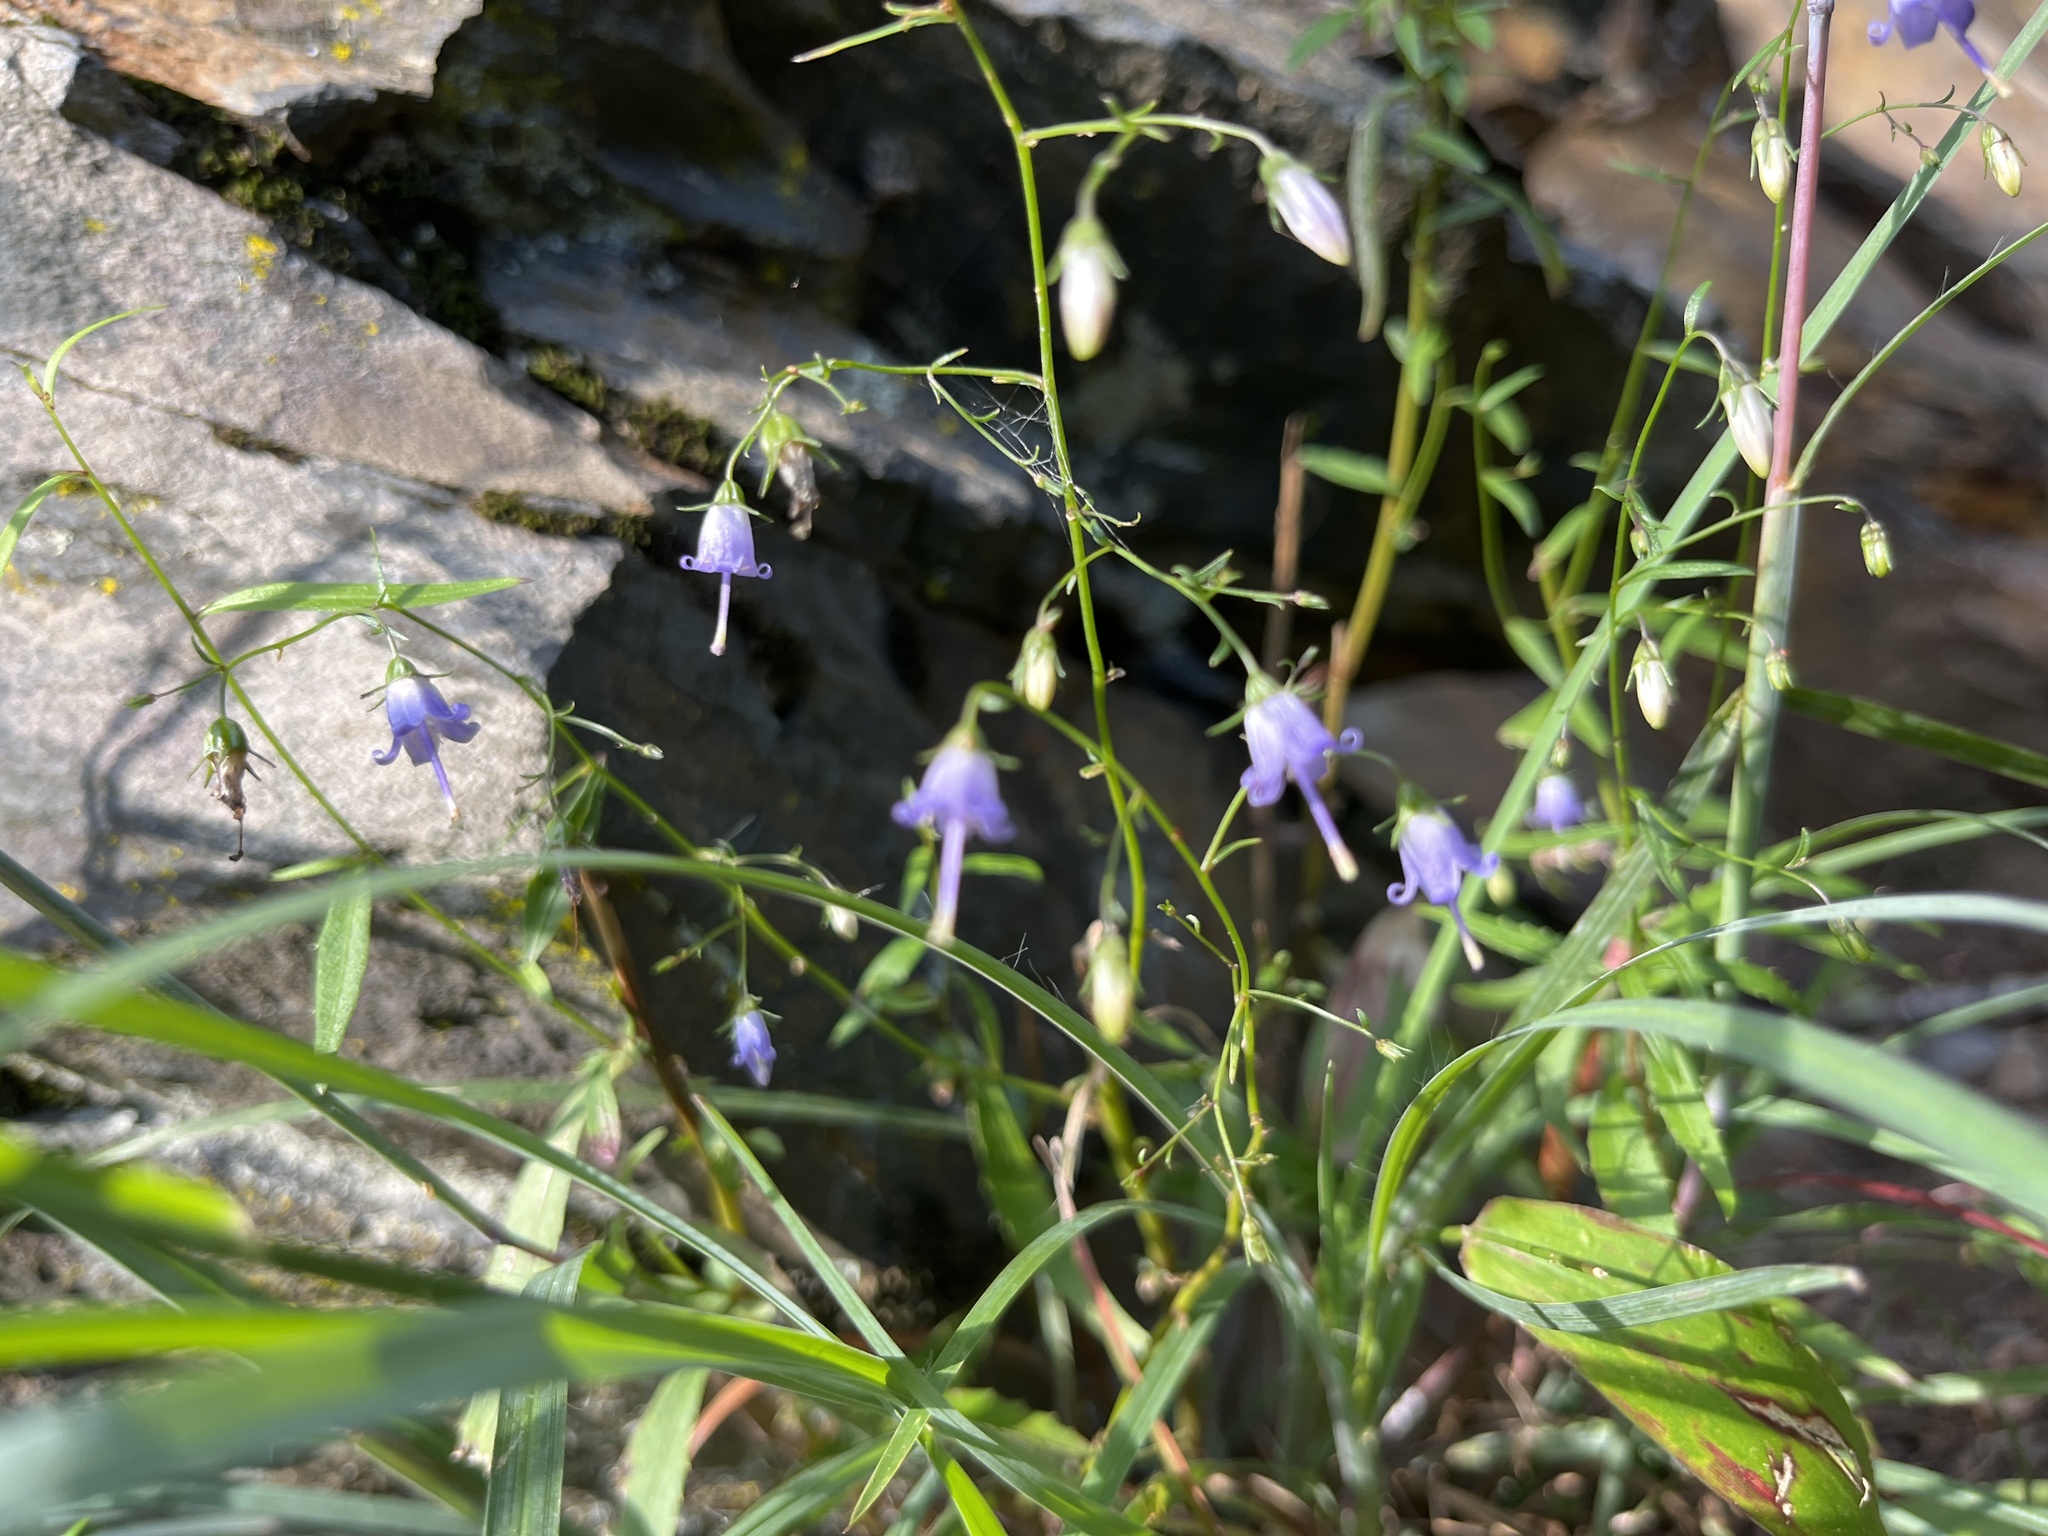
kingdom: Plantae
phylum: Tracheophyta
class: Magnoliopsida
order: Asterales
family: Campanulaceae
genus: Campanula
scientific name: Campanula divaricata
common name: Appalachian bellflower
